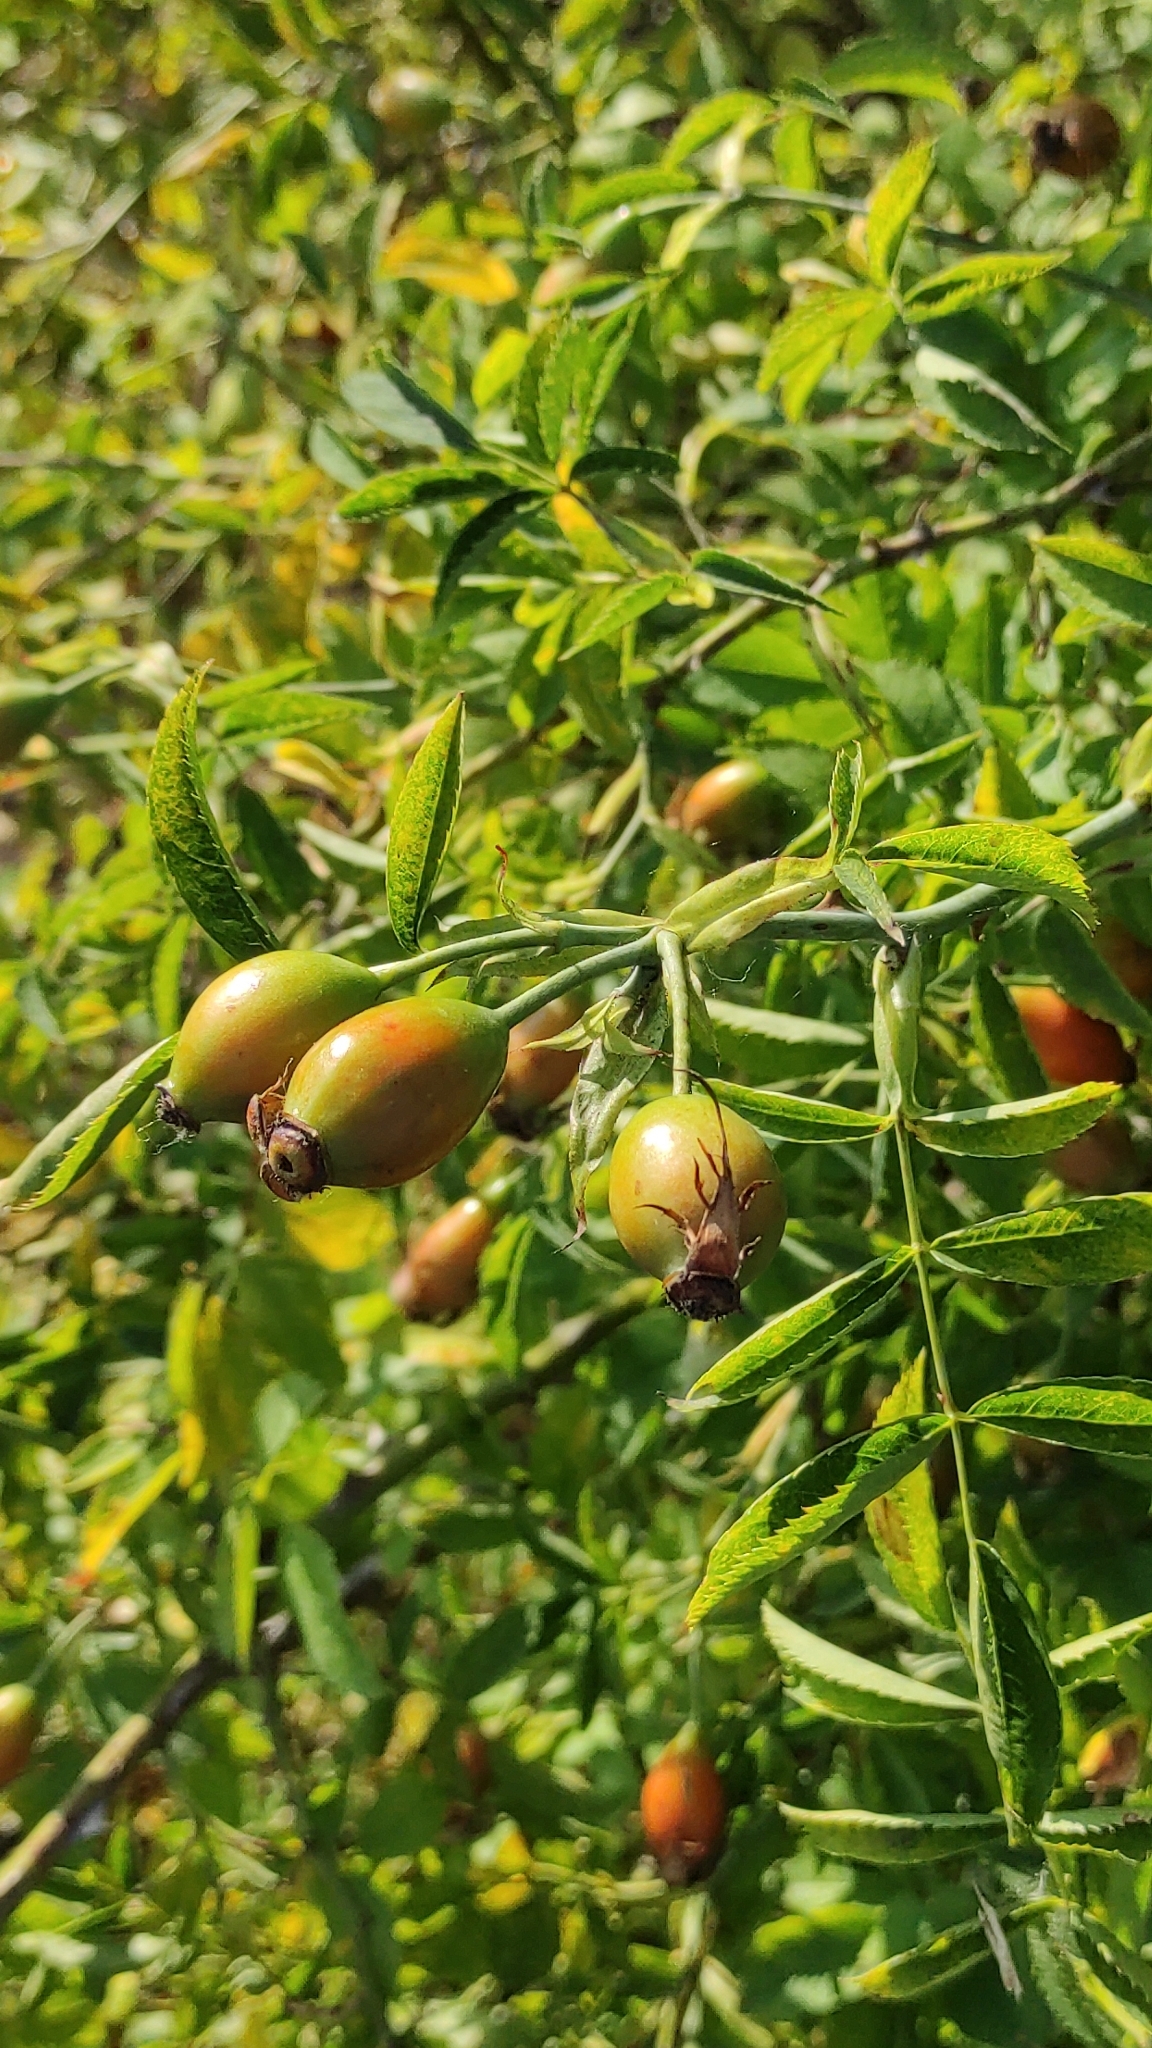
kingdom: Plantae
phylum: Tracheophyta
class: Magnoliopsida
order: Rosales
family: Rosaceae
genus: Rosa
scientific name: Rosa canina
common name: Dog rose
